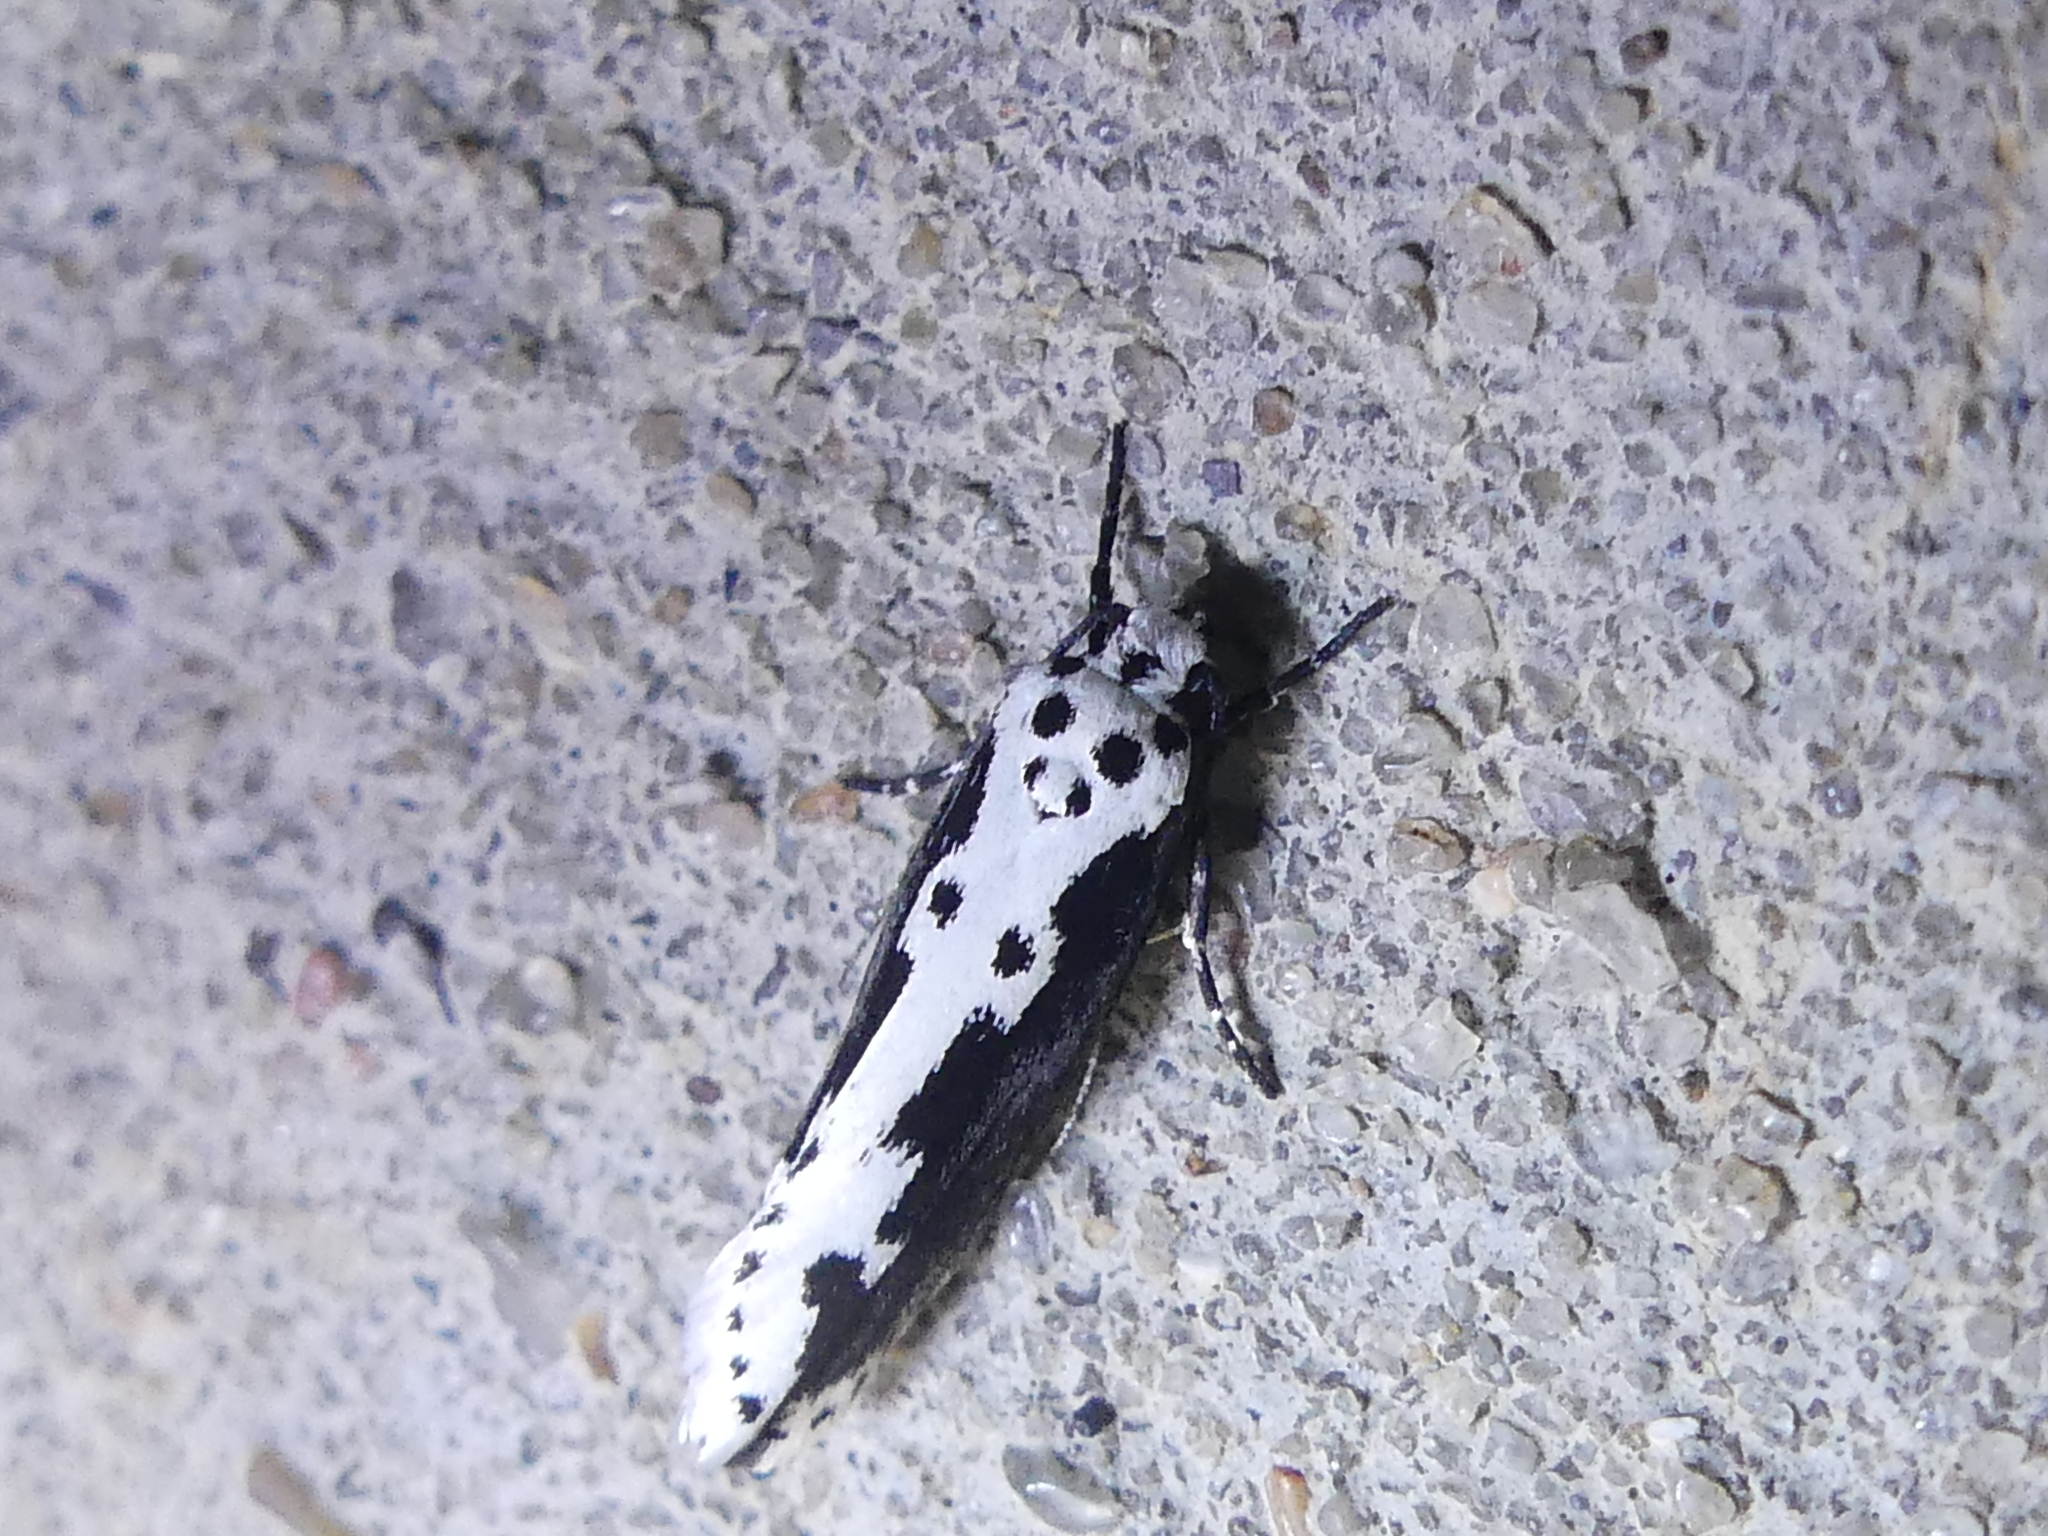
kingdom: Animalia
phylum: Arthropoda
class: Insecta
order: Lepidoptera
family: Ethmiidae
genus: Ethmia
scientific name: Ethmia semilugens
